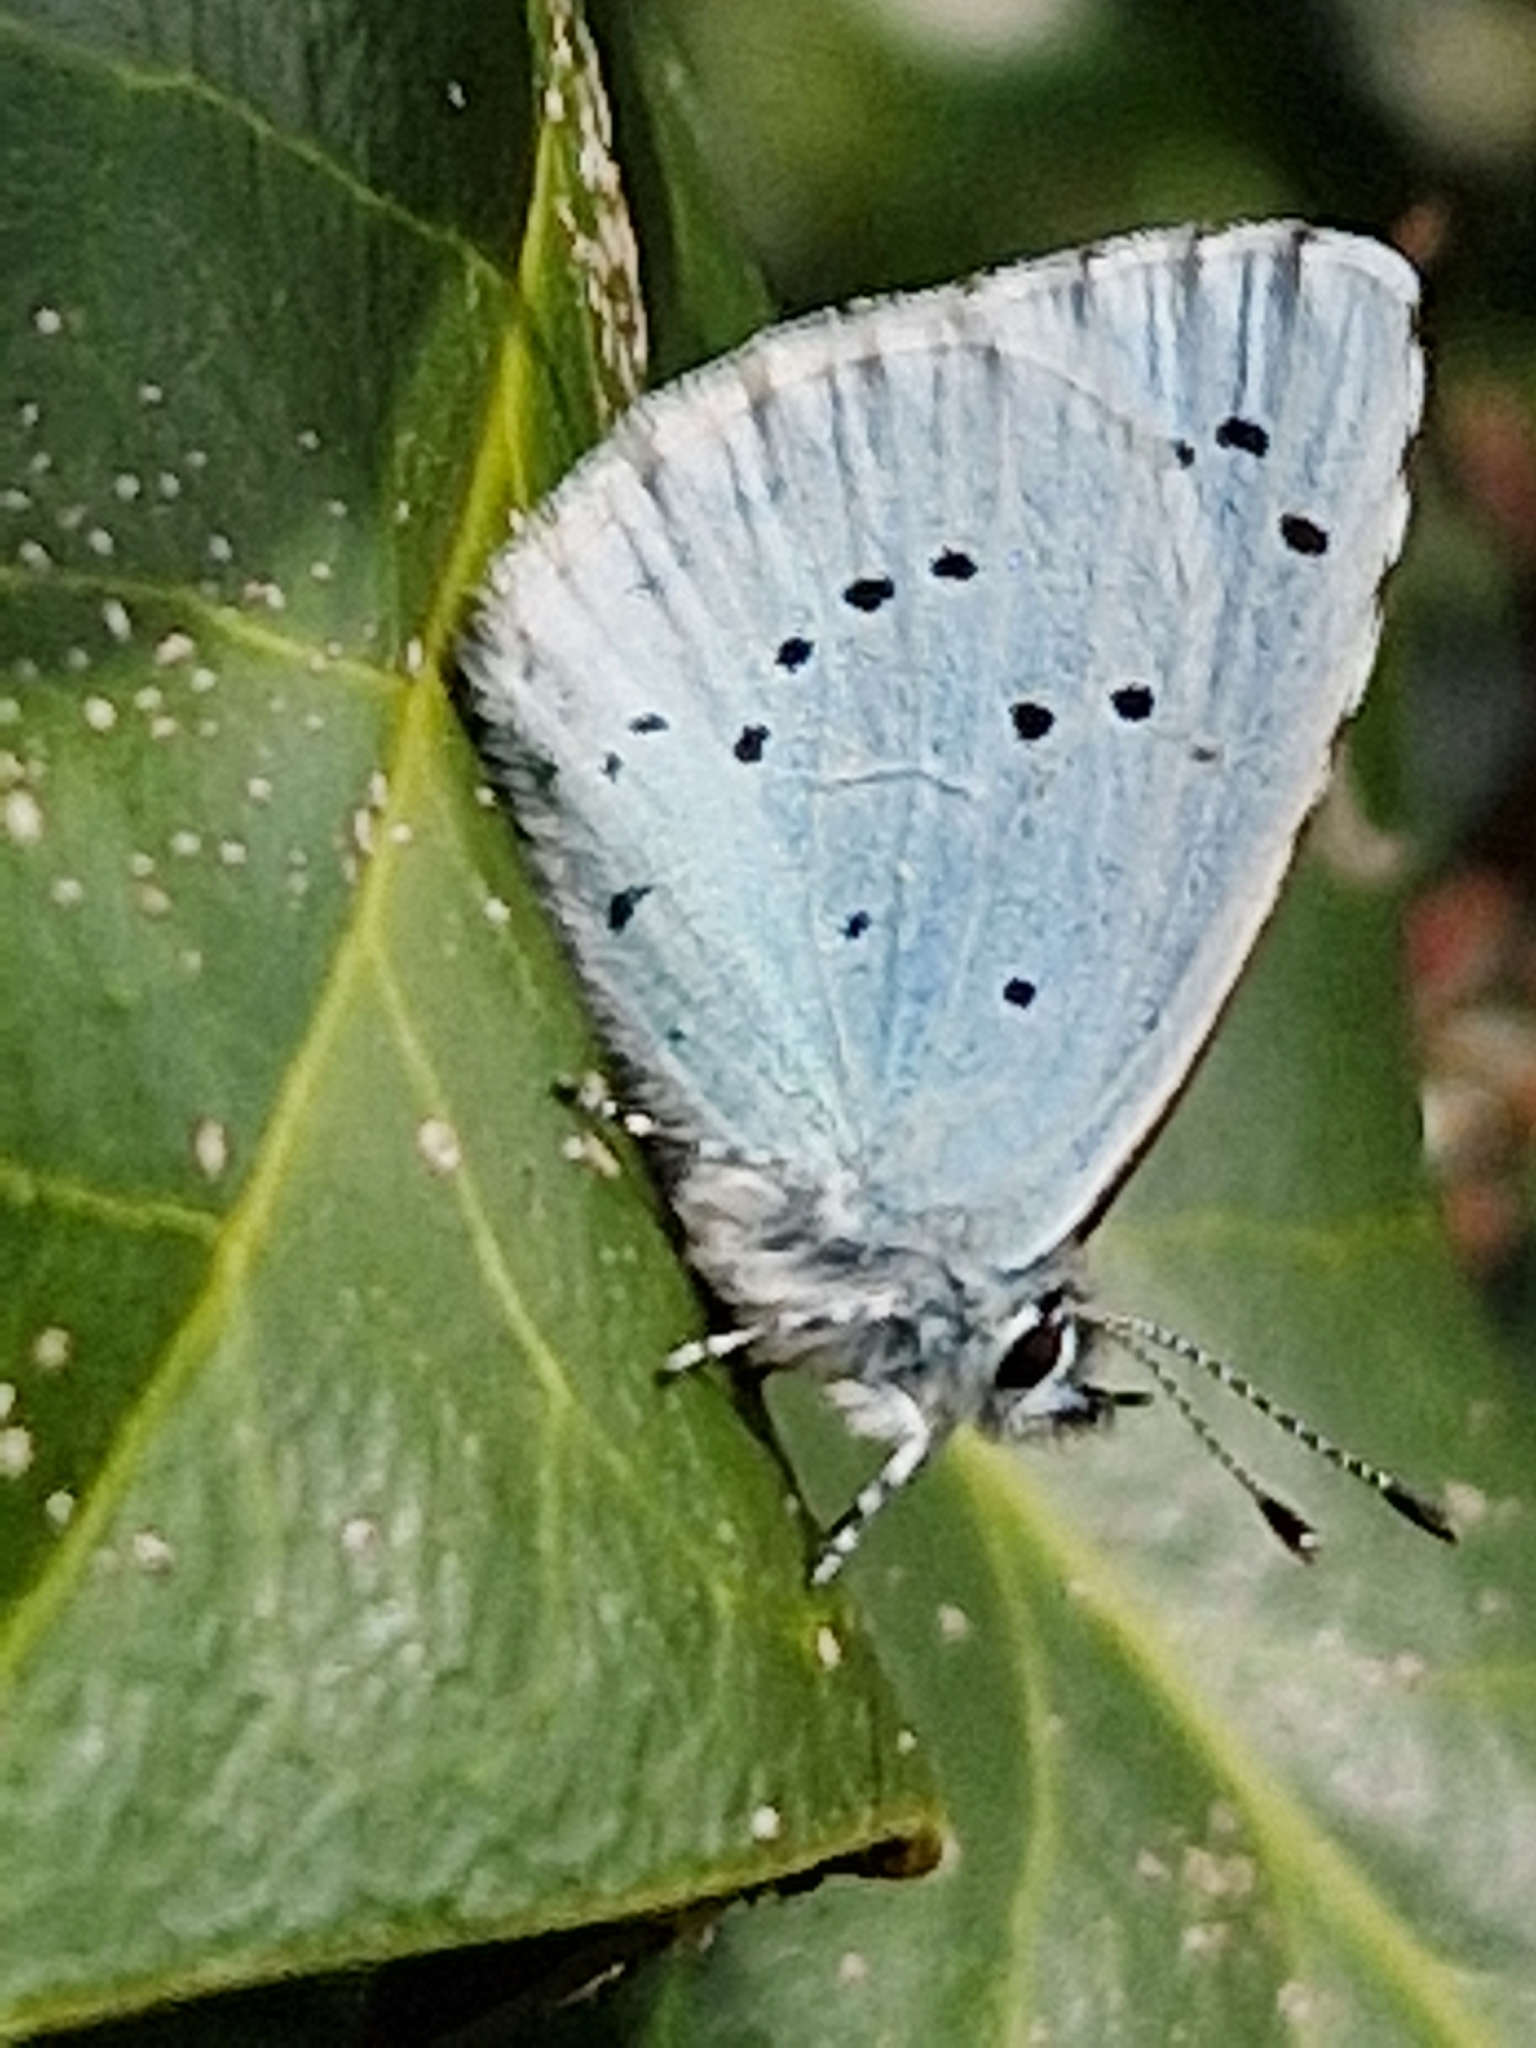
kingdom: Animalia
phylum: Arthropoda
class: Insecta
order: Lepidoptera
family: Lycaenidae
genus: Celastrina
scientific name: Celastrina argiolus
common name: Holly blue
